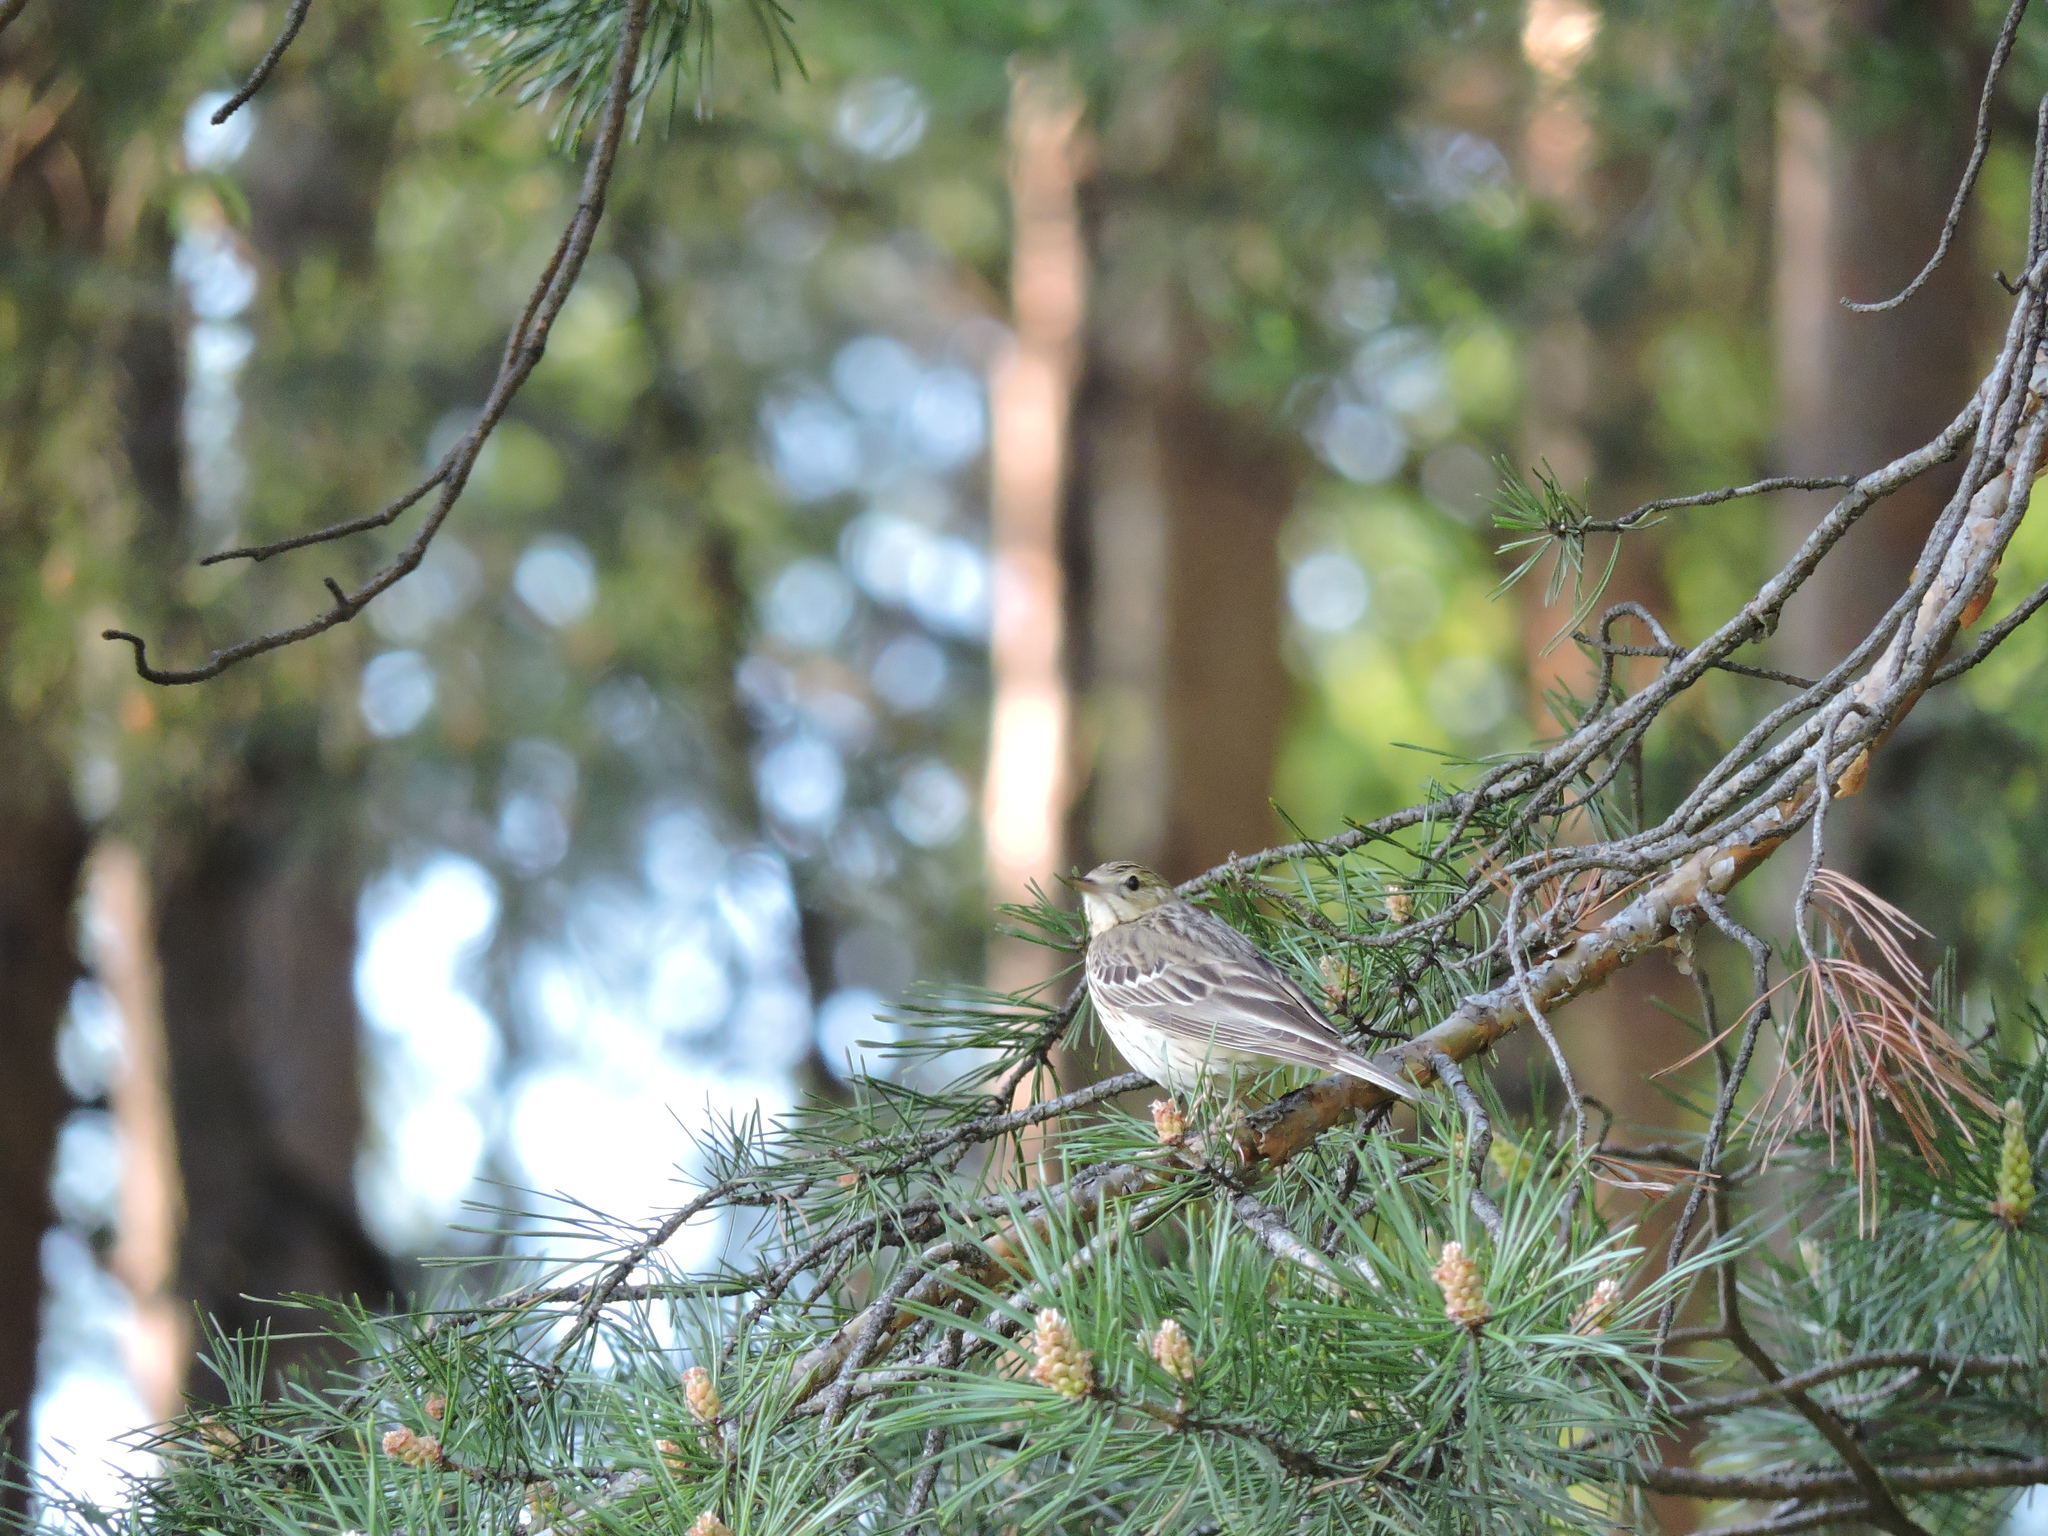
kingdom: Animalia
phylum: Chordata
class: Aves
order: Passeriformes
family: Motacillidae
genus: Anthus
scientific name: Anthus trivialis
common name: Tree pipit
